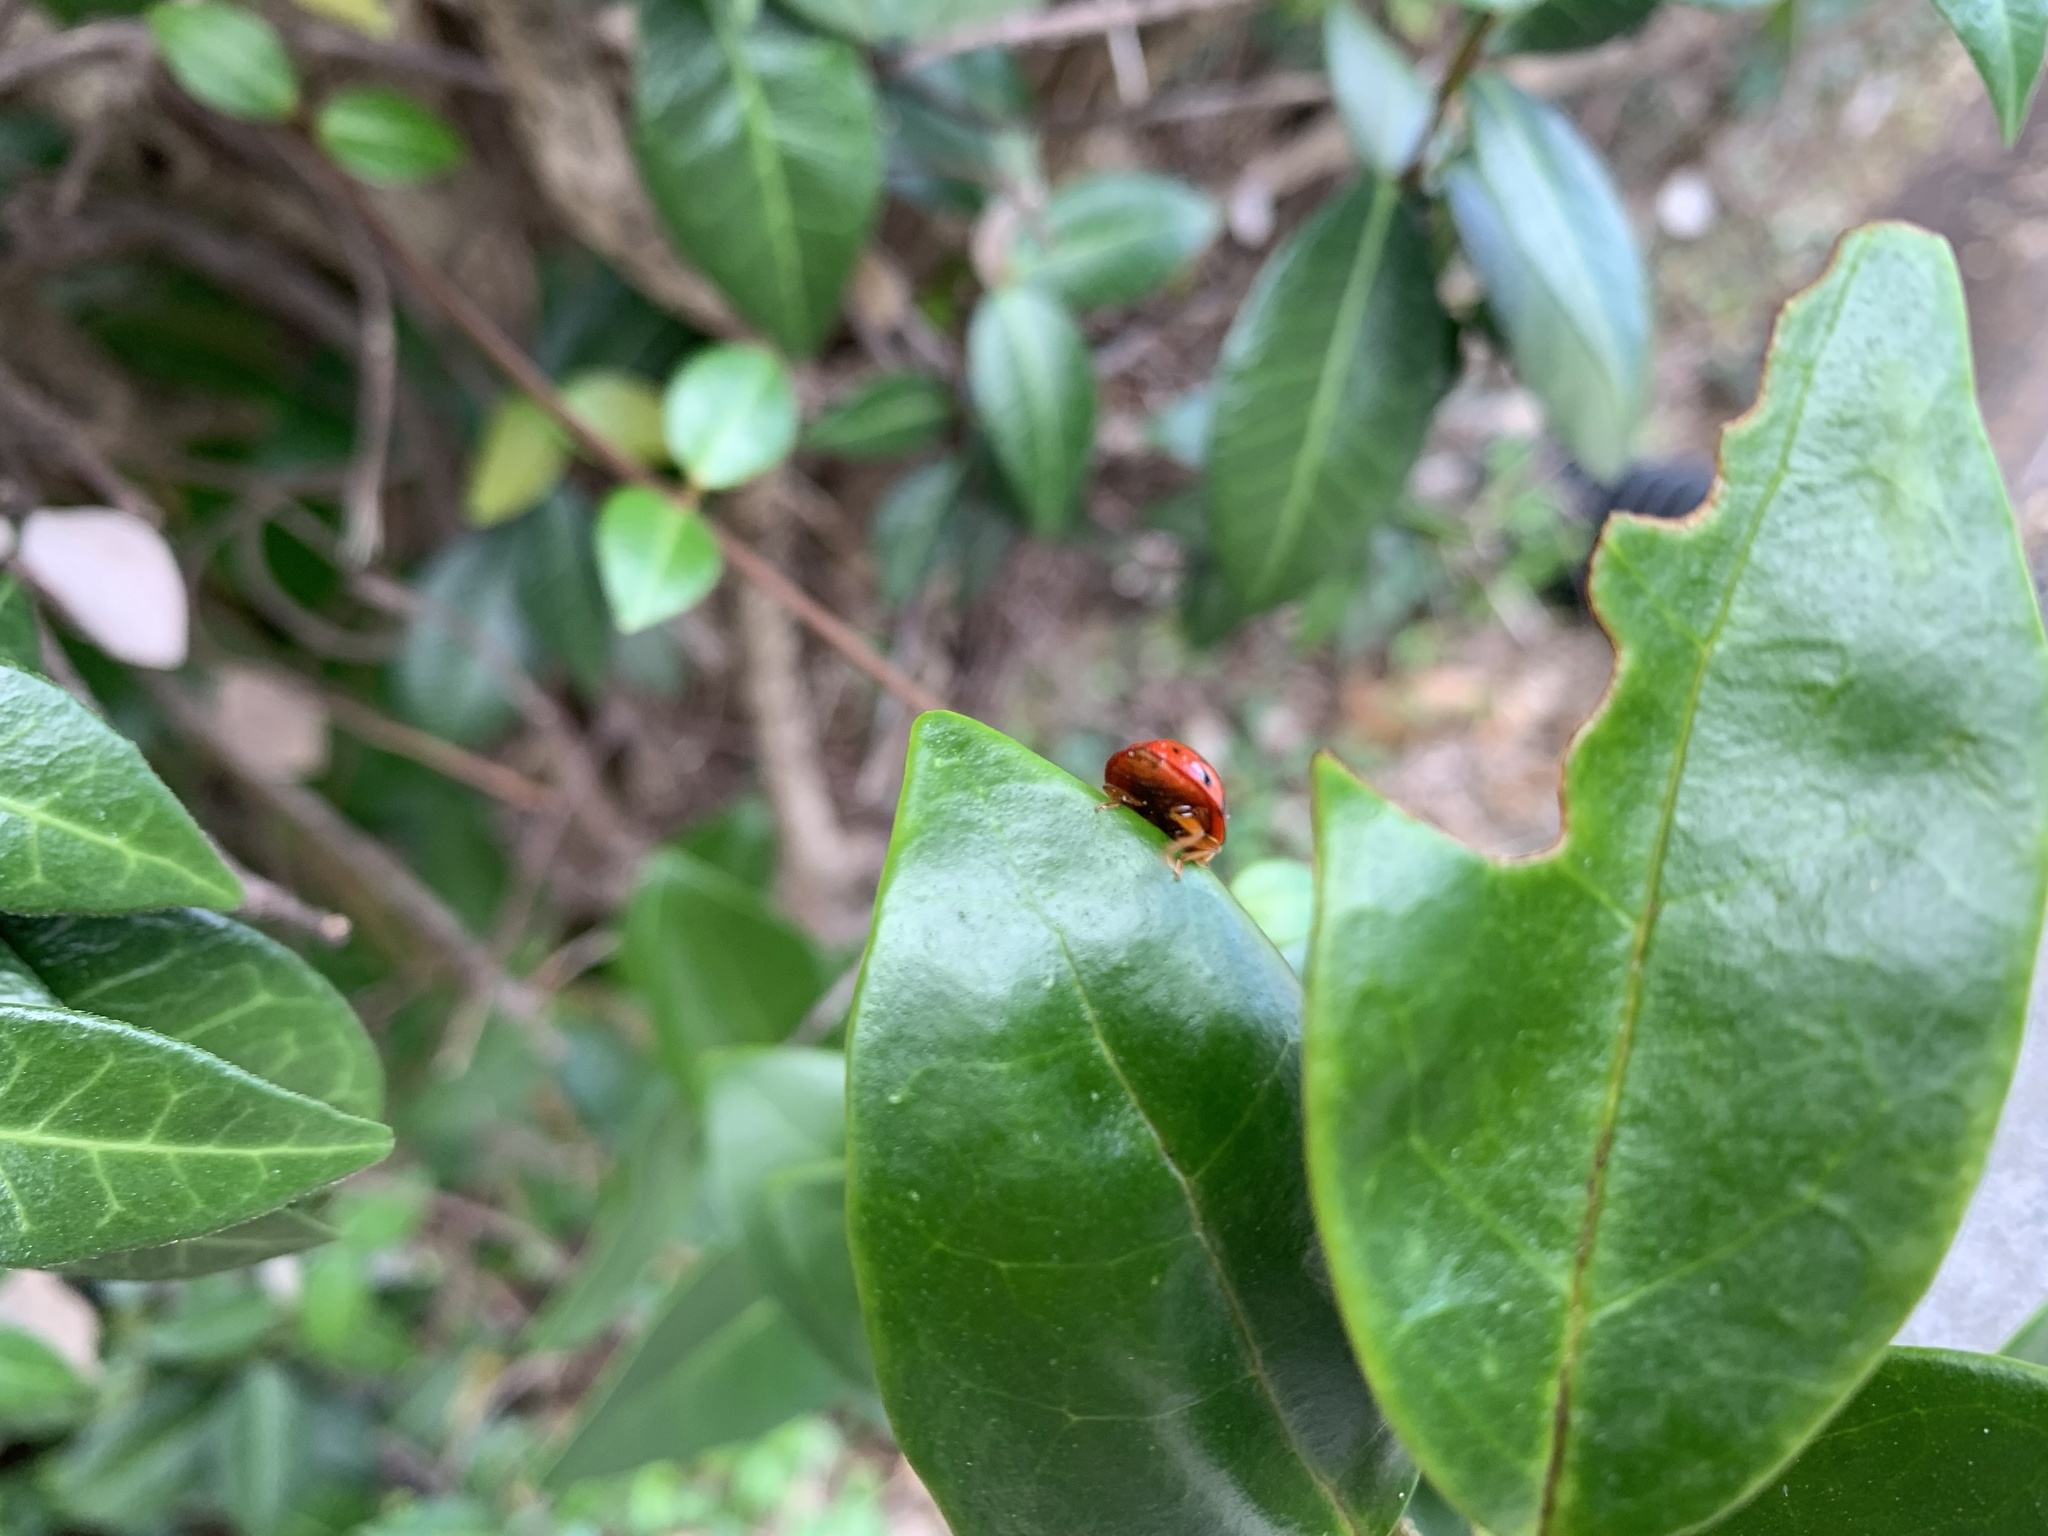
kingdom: Animalia
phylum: Arthropoda
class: Insecta
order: Coleoptera
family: Coccinellidae
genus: Harmonia
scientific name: Harmonia axyridis
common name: Harlequin ladybird
